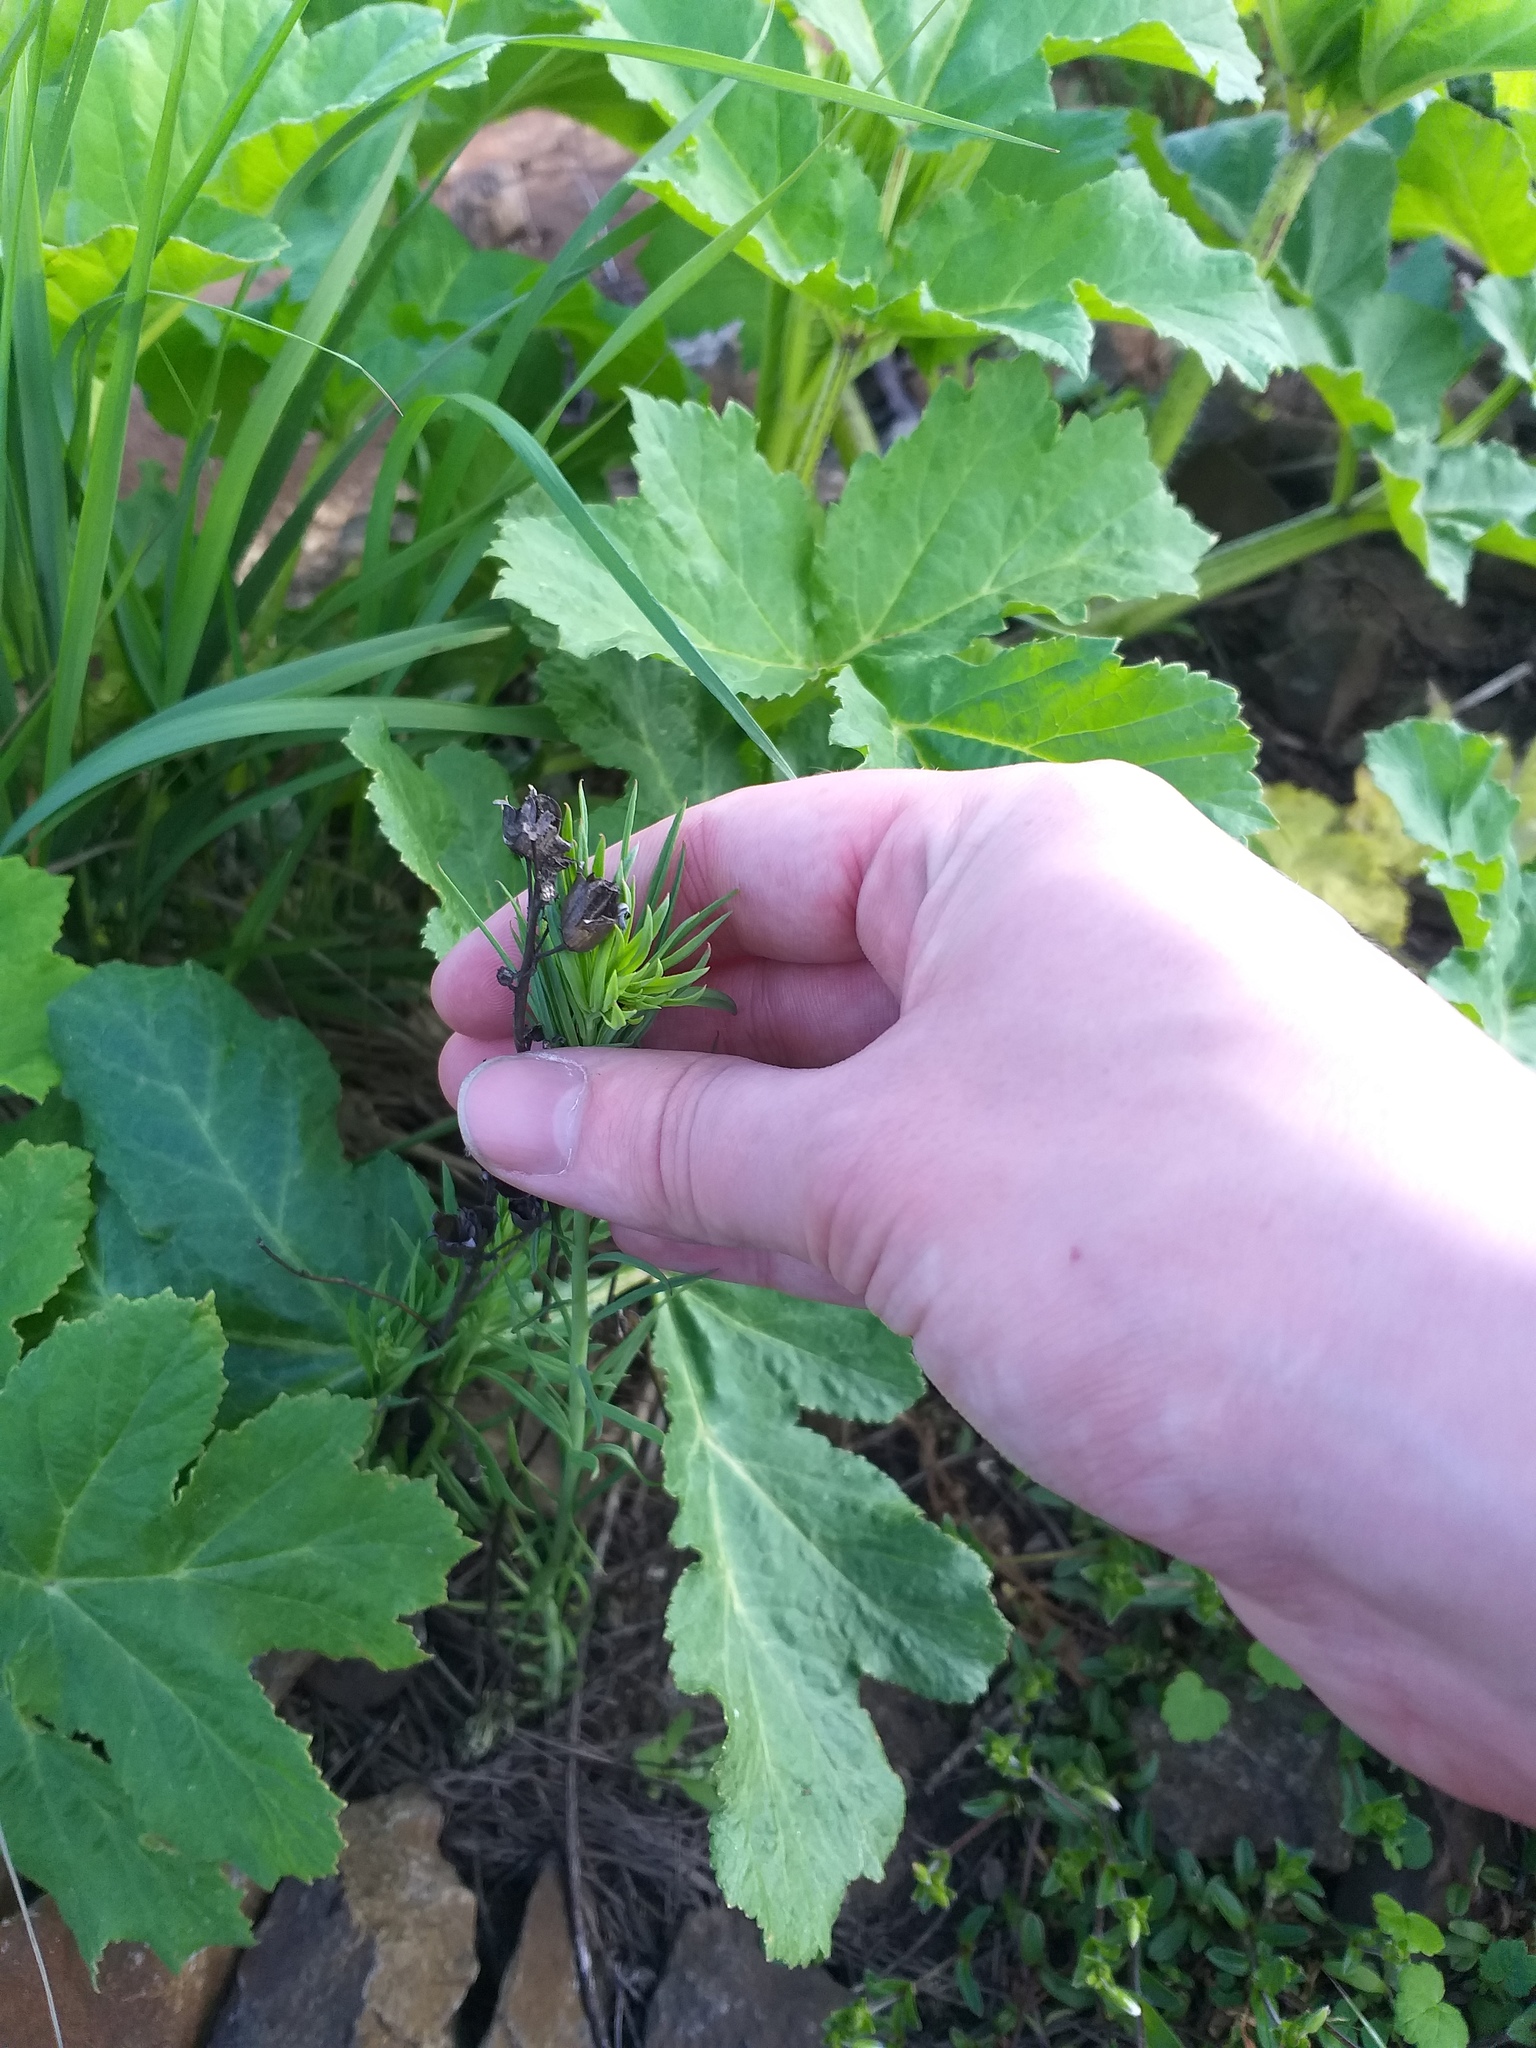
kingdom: Plantae
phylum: Tracheophyta
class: Magnoliopsida
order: Lamiales
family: Plantaginaceae
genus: Linaria
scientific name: Linaria vulgaris
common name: Butter and eggs
